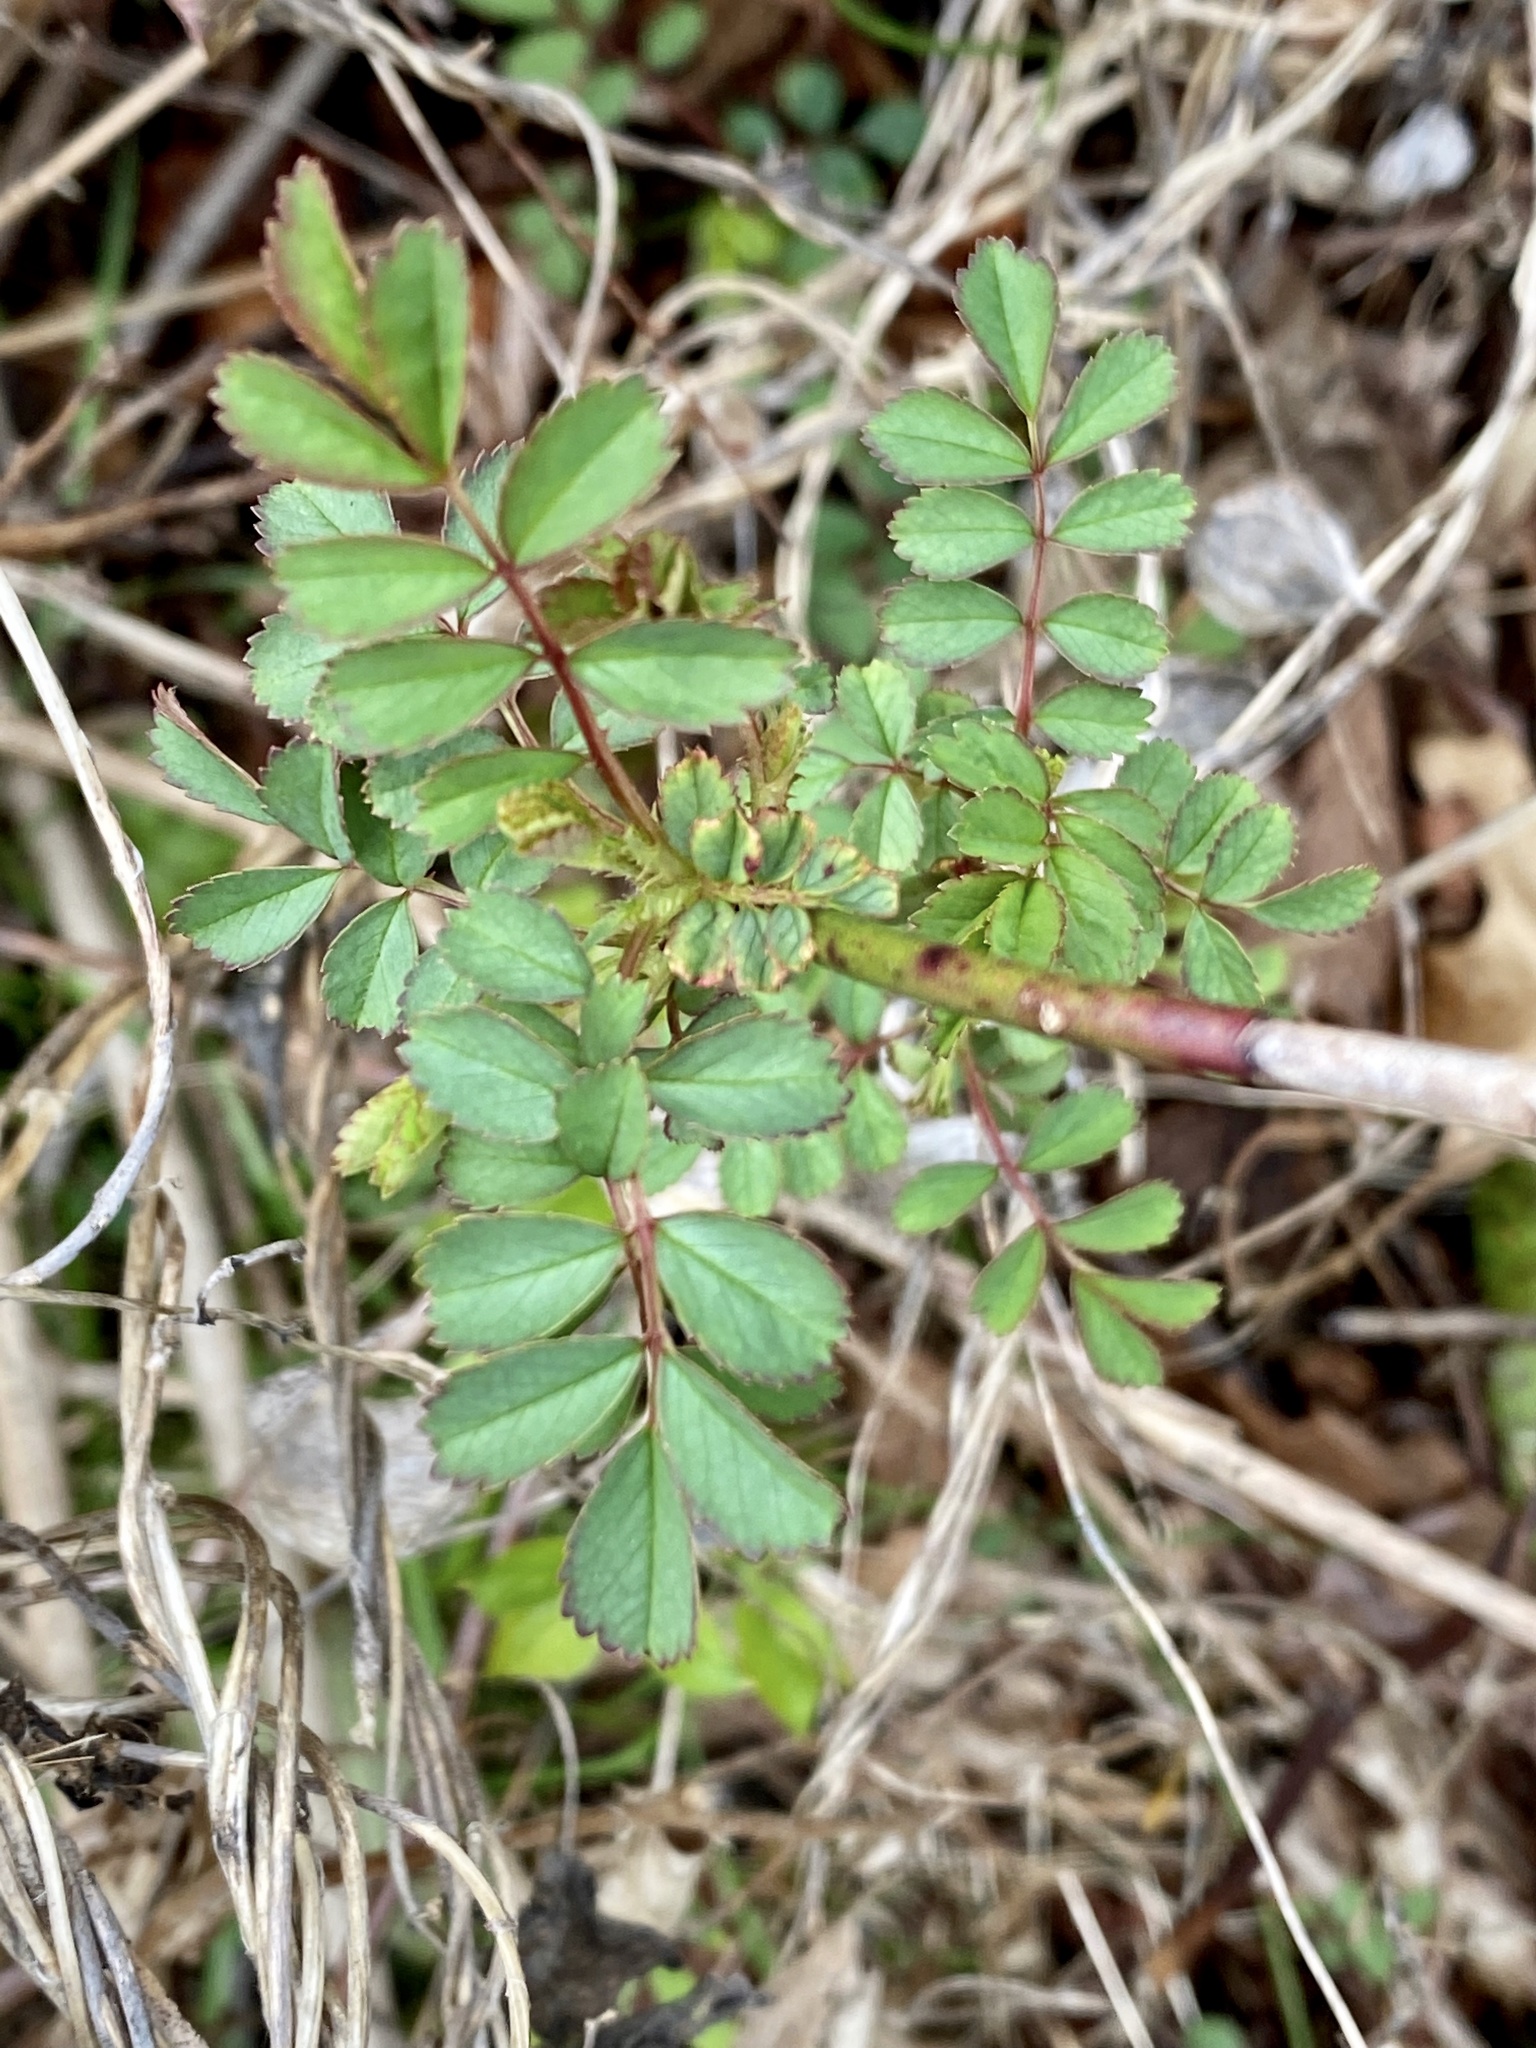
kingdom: Plantae
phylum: Tracheophyta
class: Magnoliopsida
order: Rosales
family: Rosaceae
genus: Rosa
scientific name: Rosa multiflora
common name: Multiflora rose
